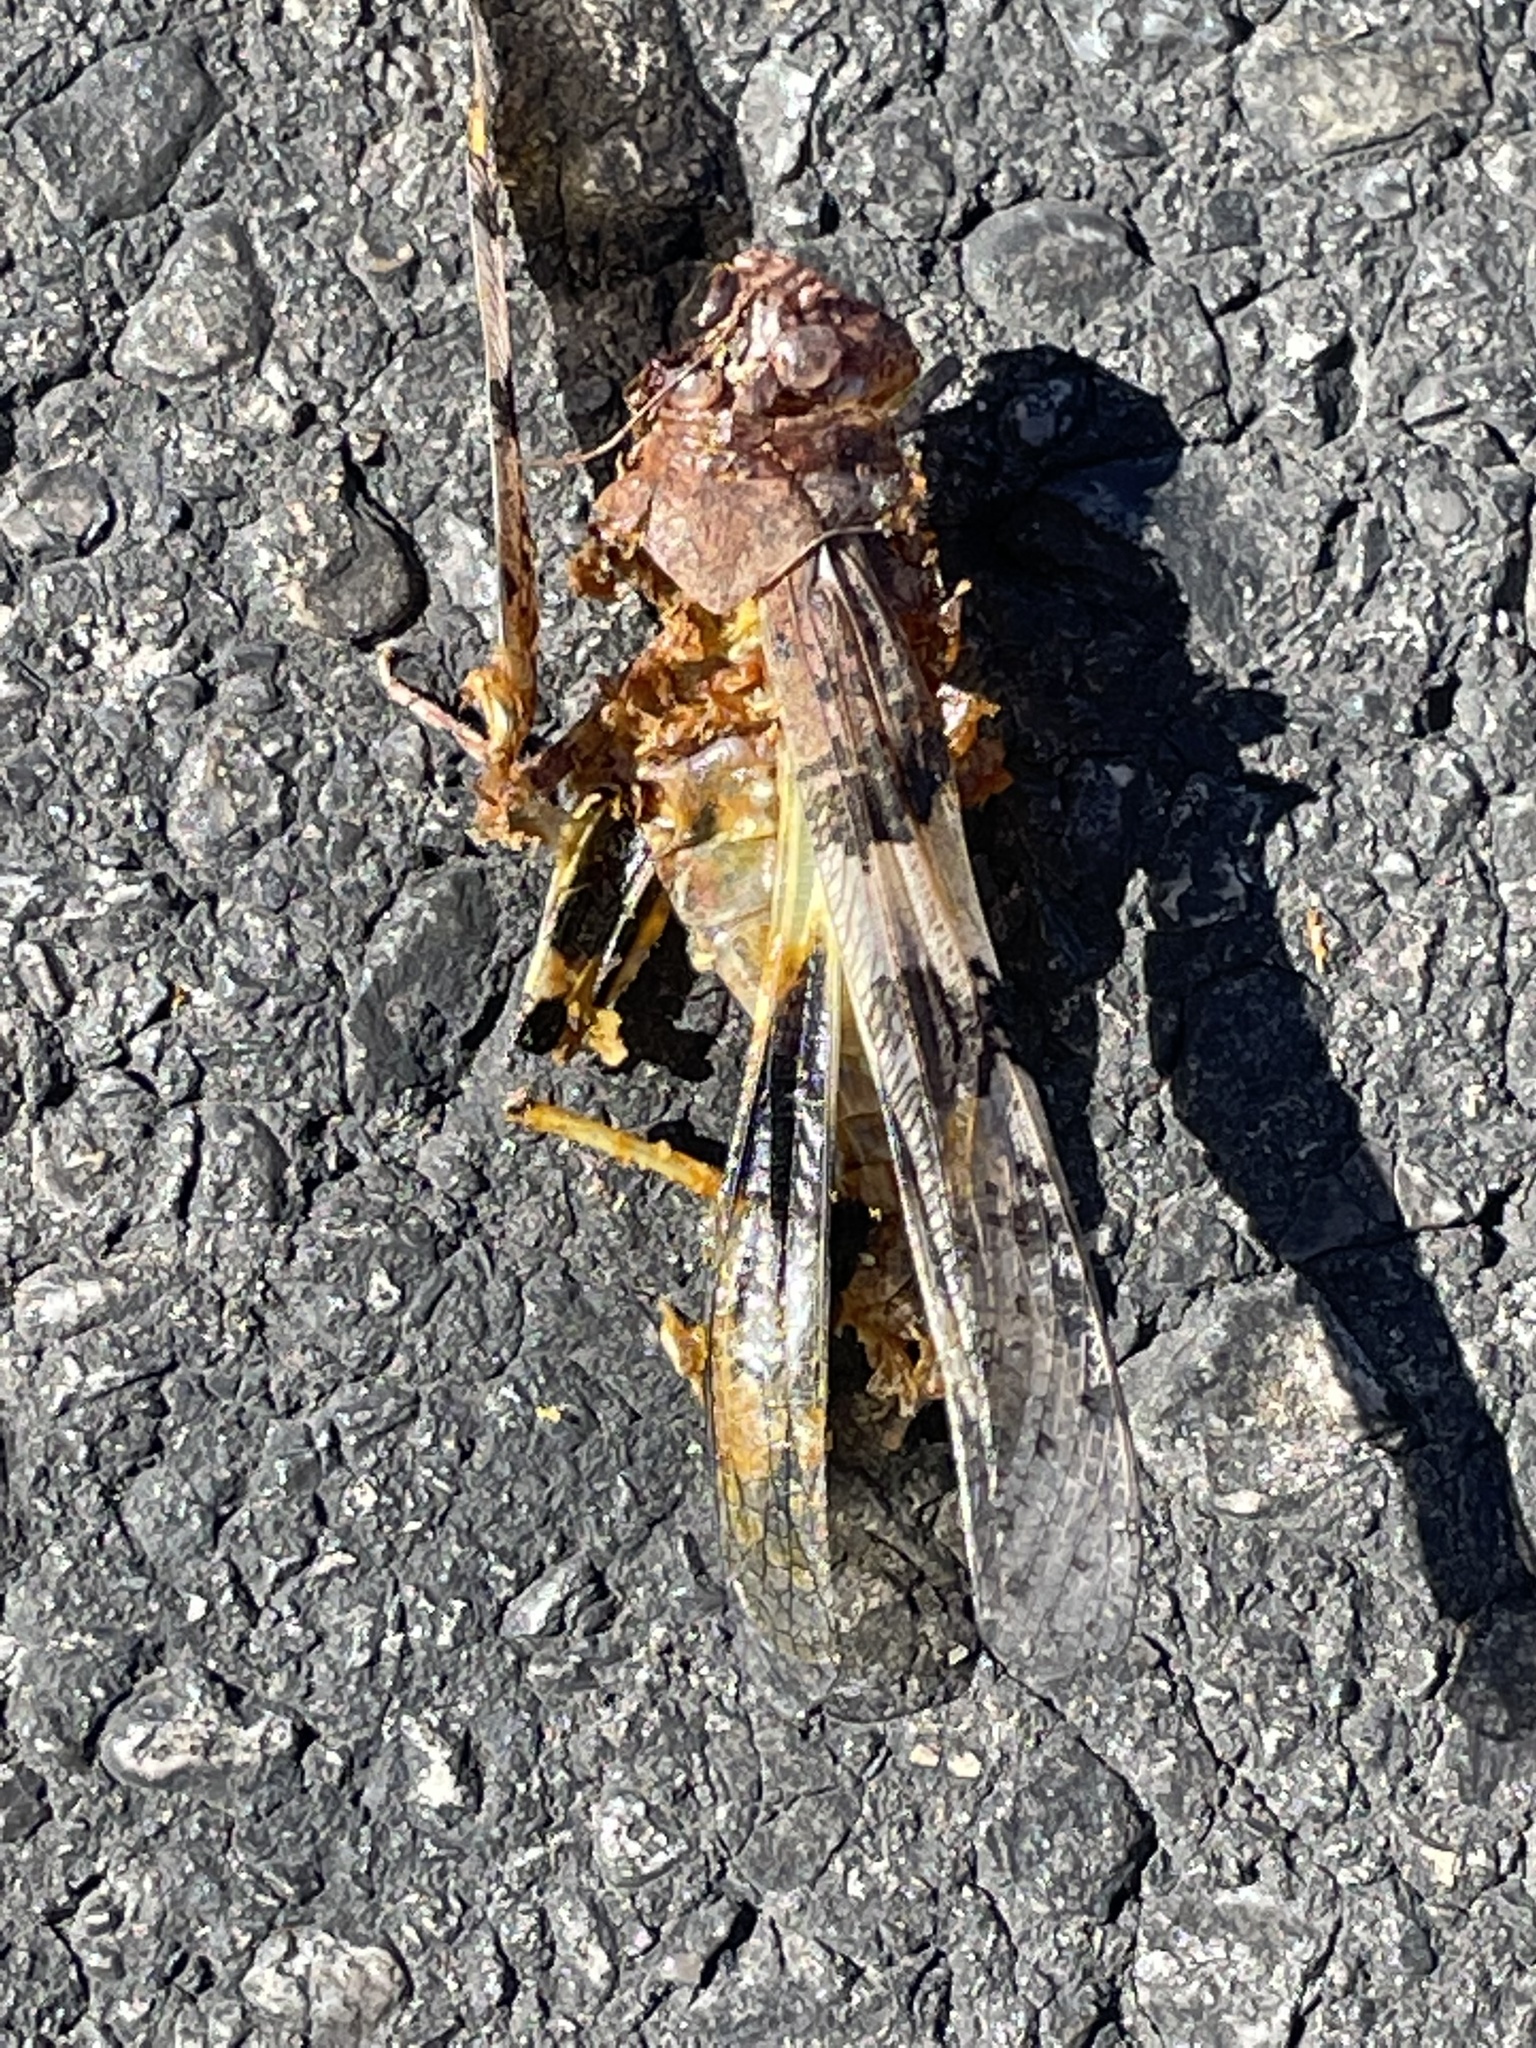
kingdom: Animalia
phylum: Arthropoda
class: Insecta
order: Orthoptera
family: Acrididae
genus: Trimerotropis
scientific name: Trimerotropis pallidipennis
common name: Pallid-winged grasshopper
